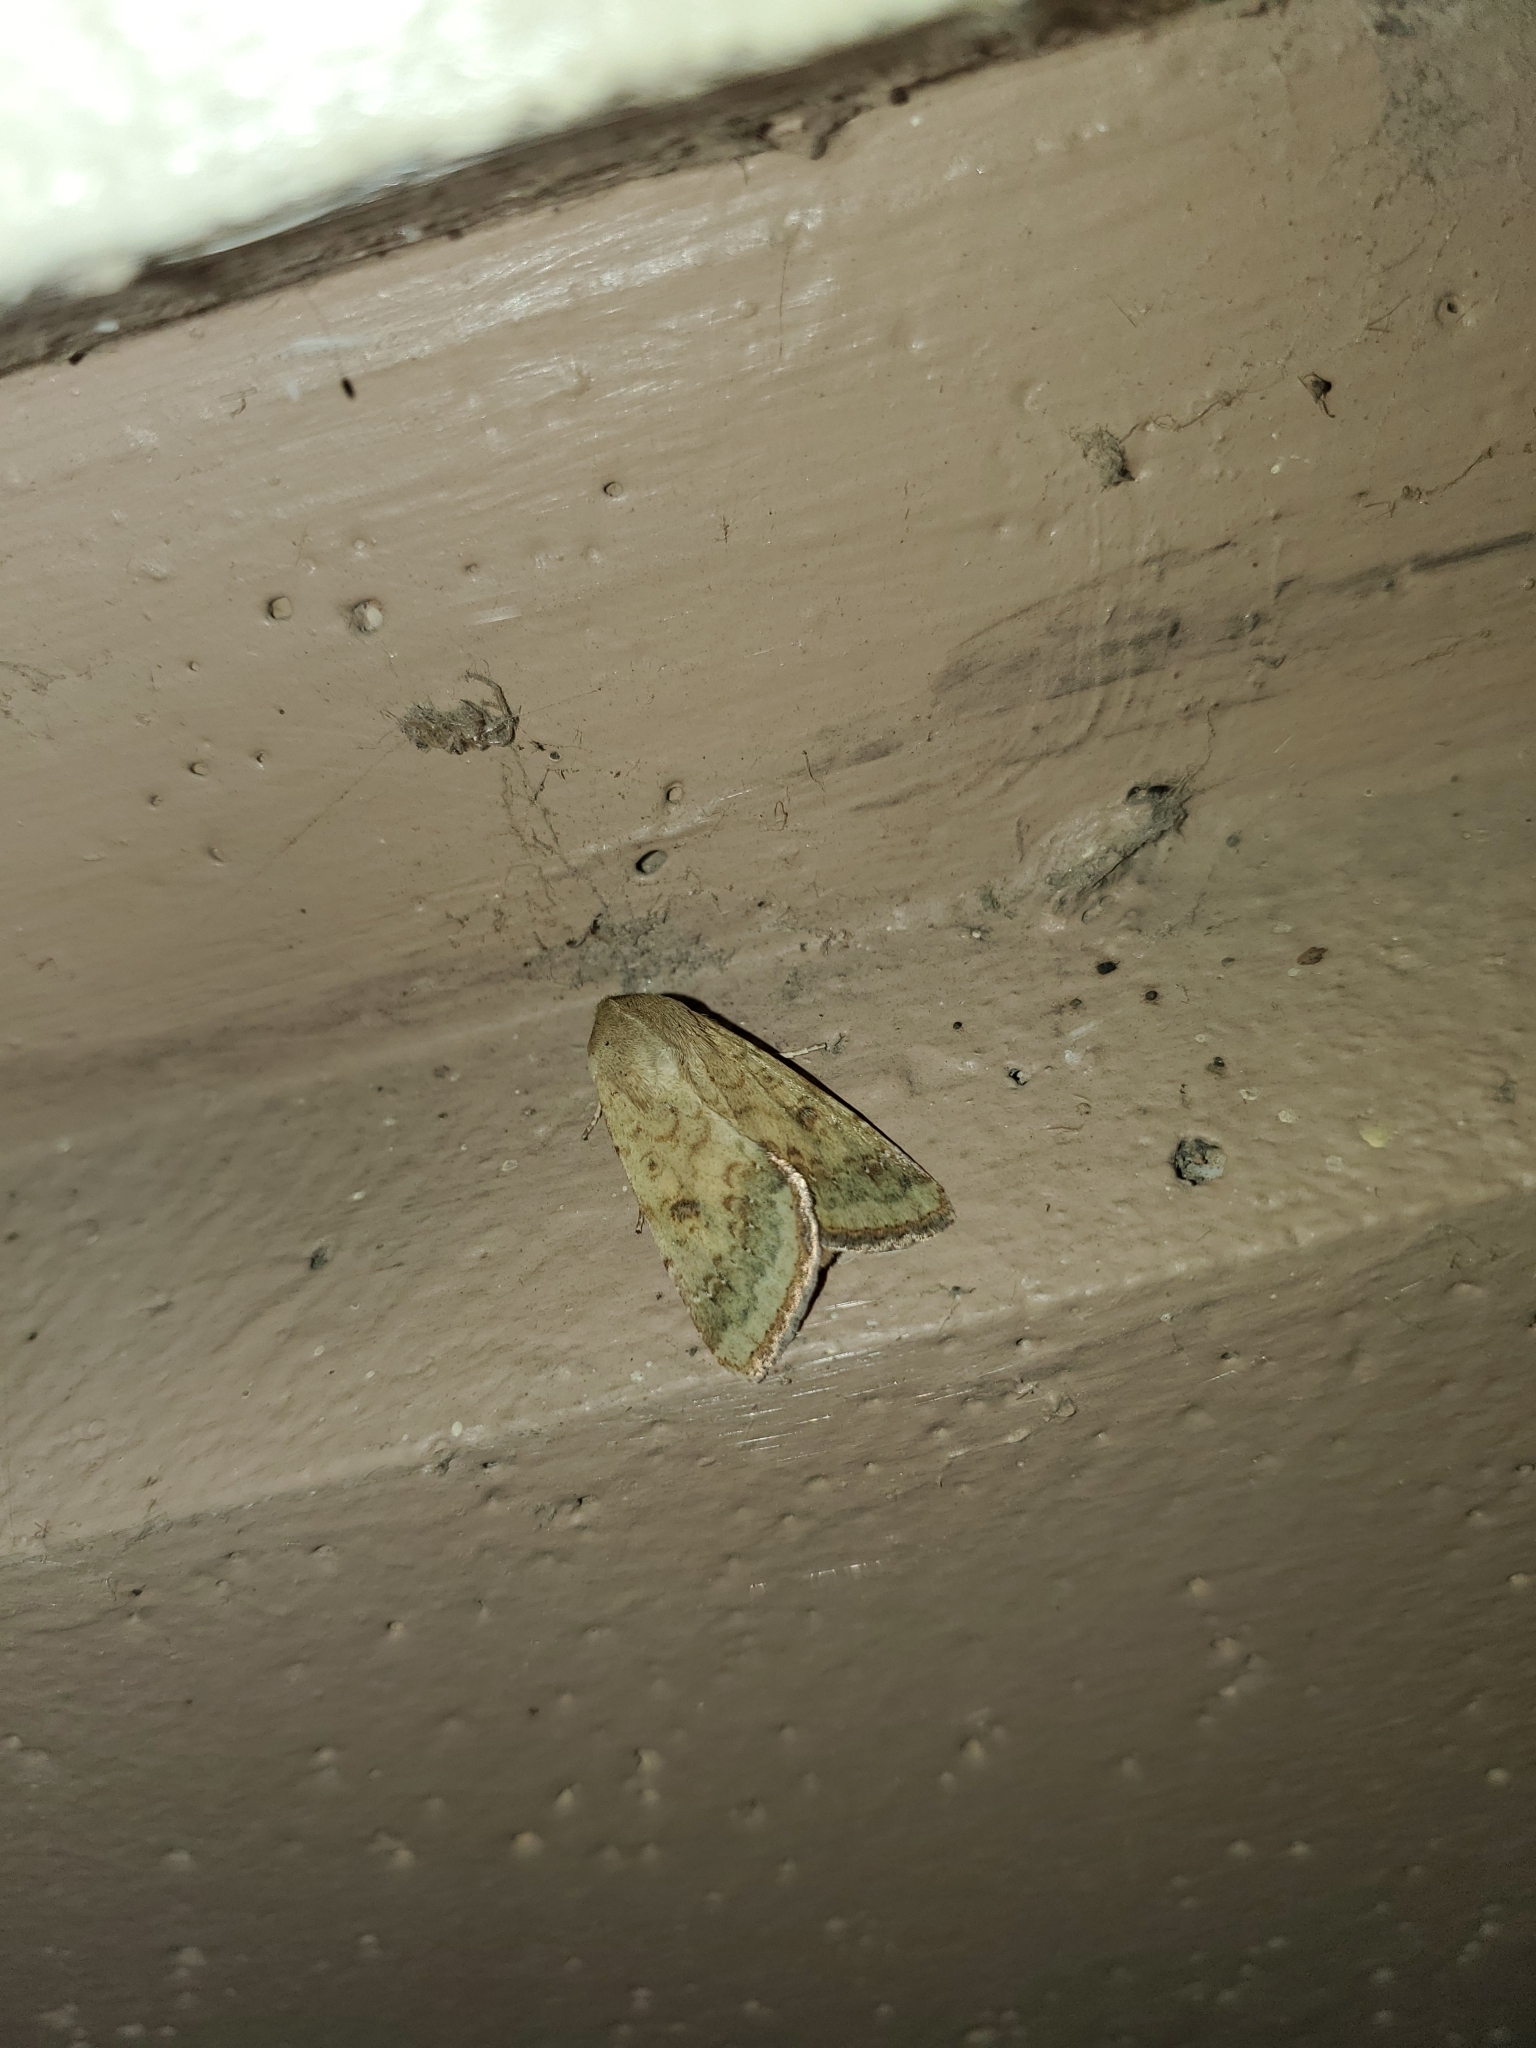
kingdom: Animalia
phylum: Arthropoda
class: Insecta
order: Lepidoptera
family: Noctuidae
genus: Helicoverpa
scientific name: Helicoverpa zea
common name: Bollworm
